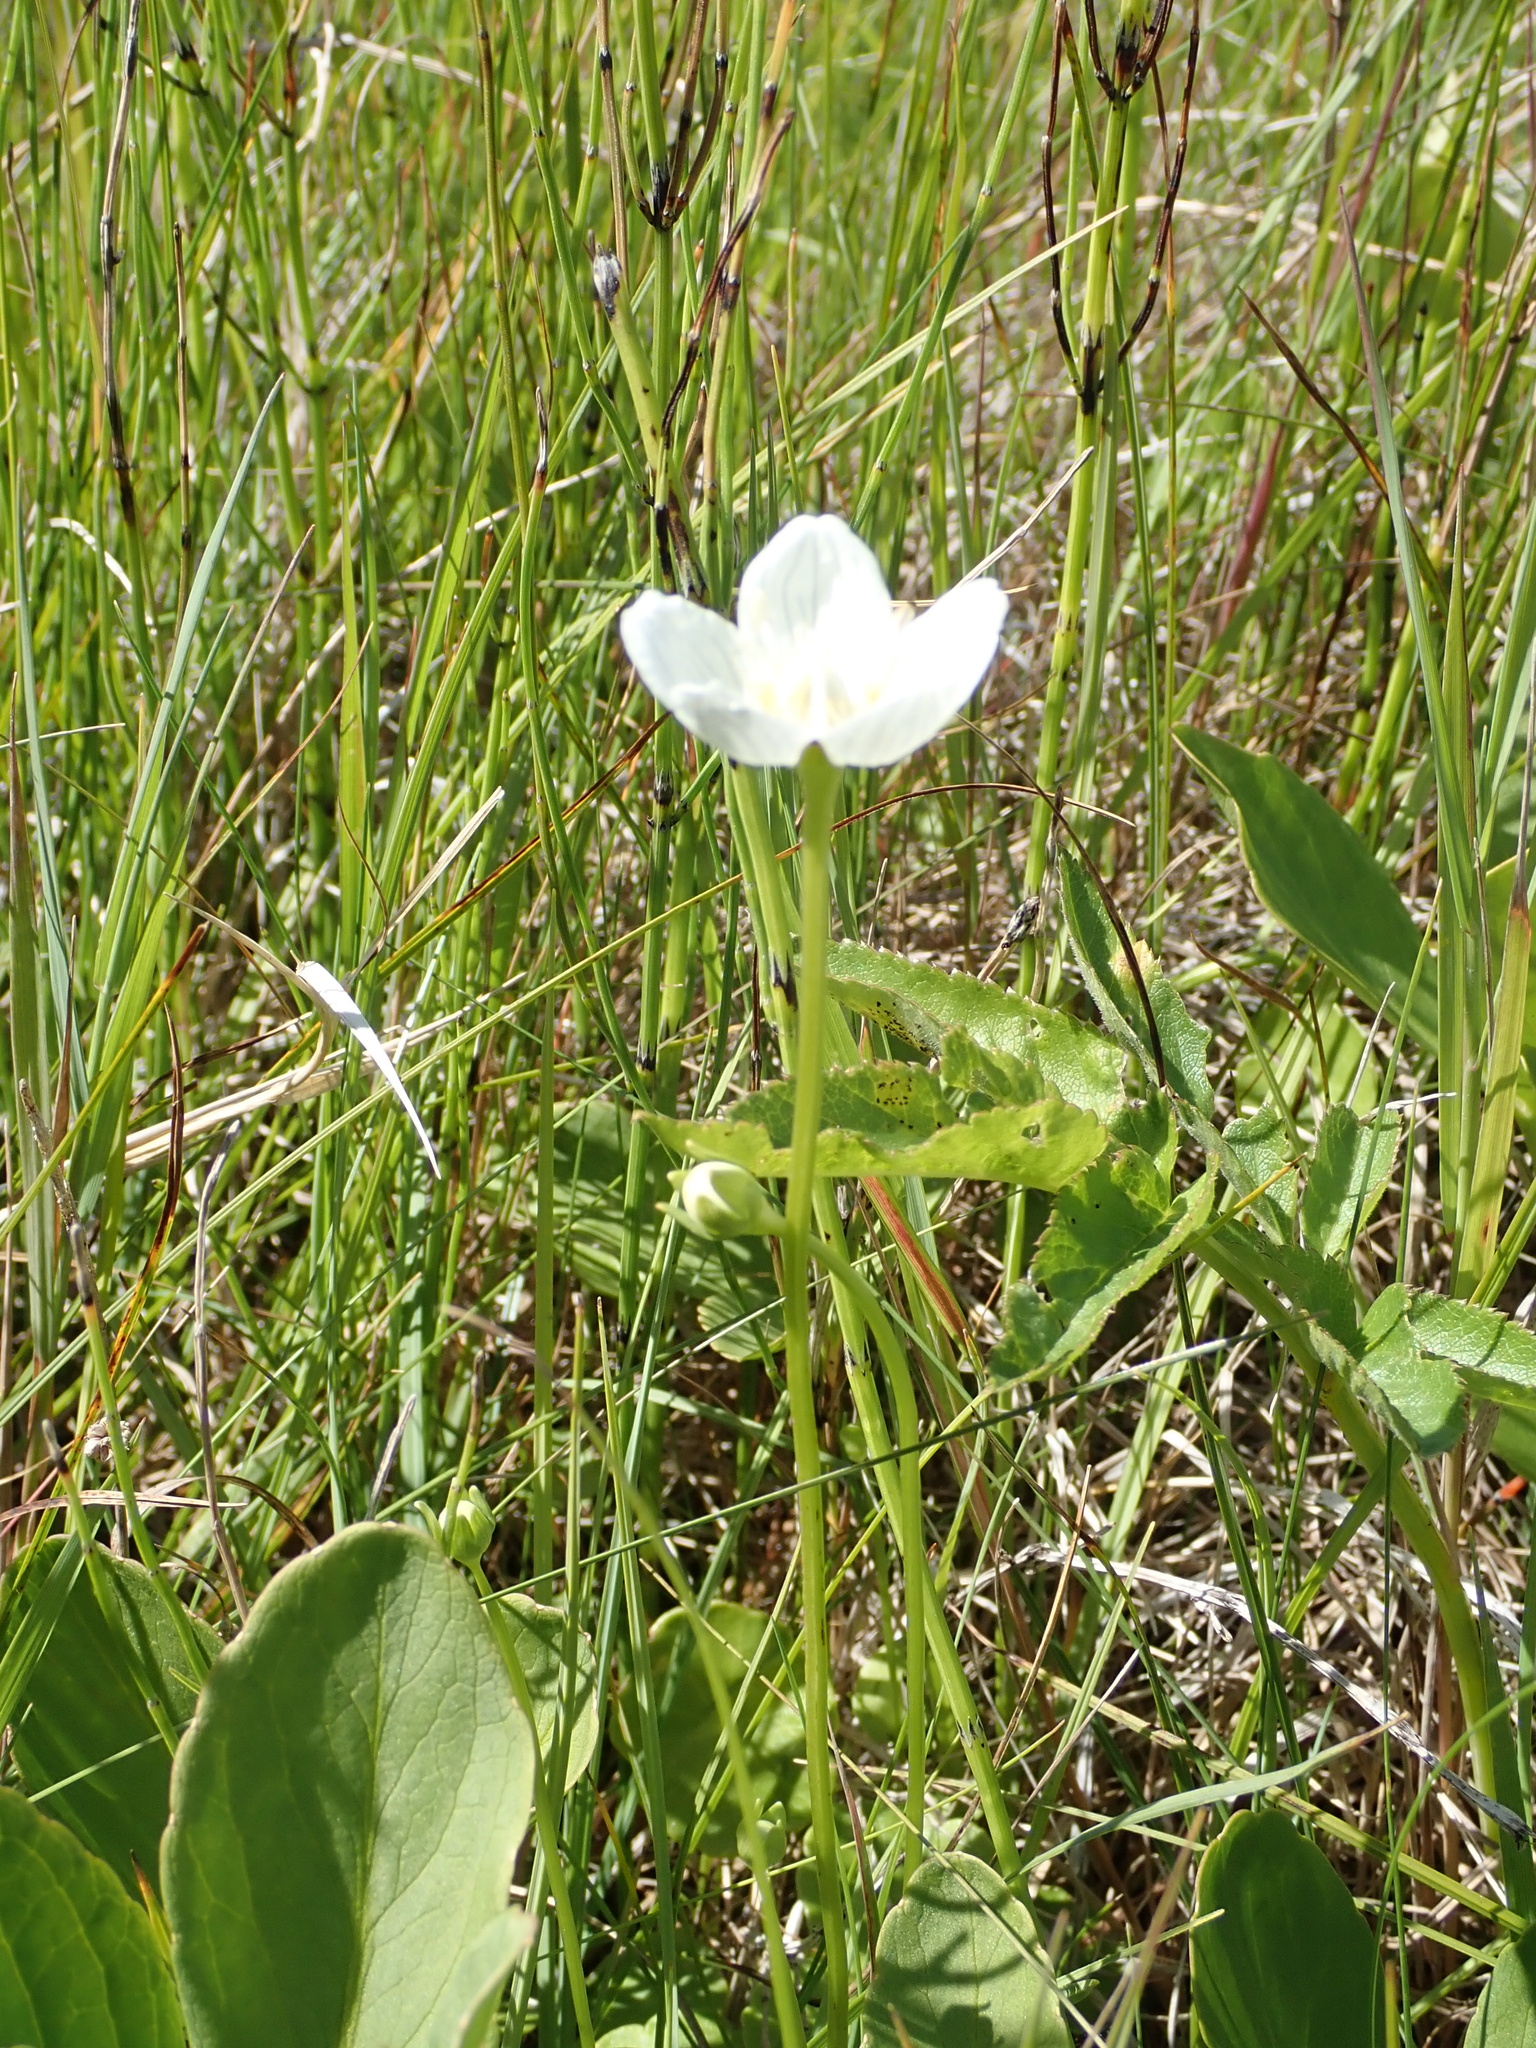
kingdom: Plantae
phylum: Tracheophyta
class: Magnoliopsida
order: Celastrales
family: Parnassiaceae
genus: Parnassia
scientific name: Parnassia palustris
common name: Grass-of-parnassus
